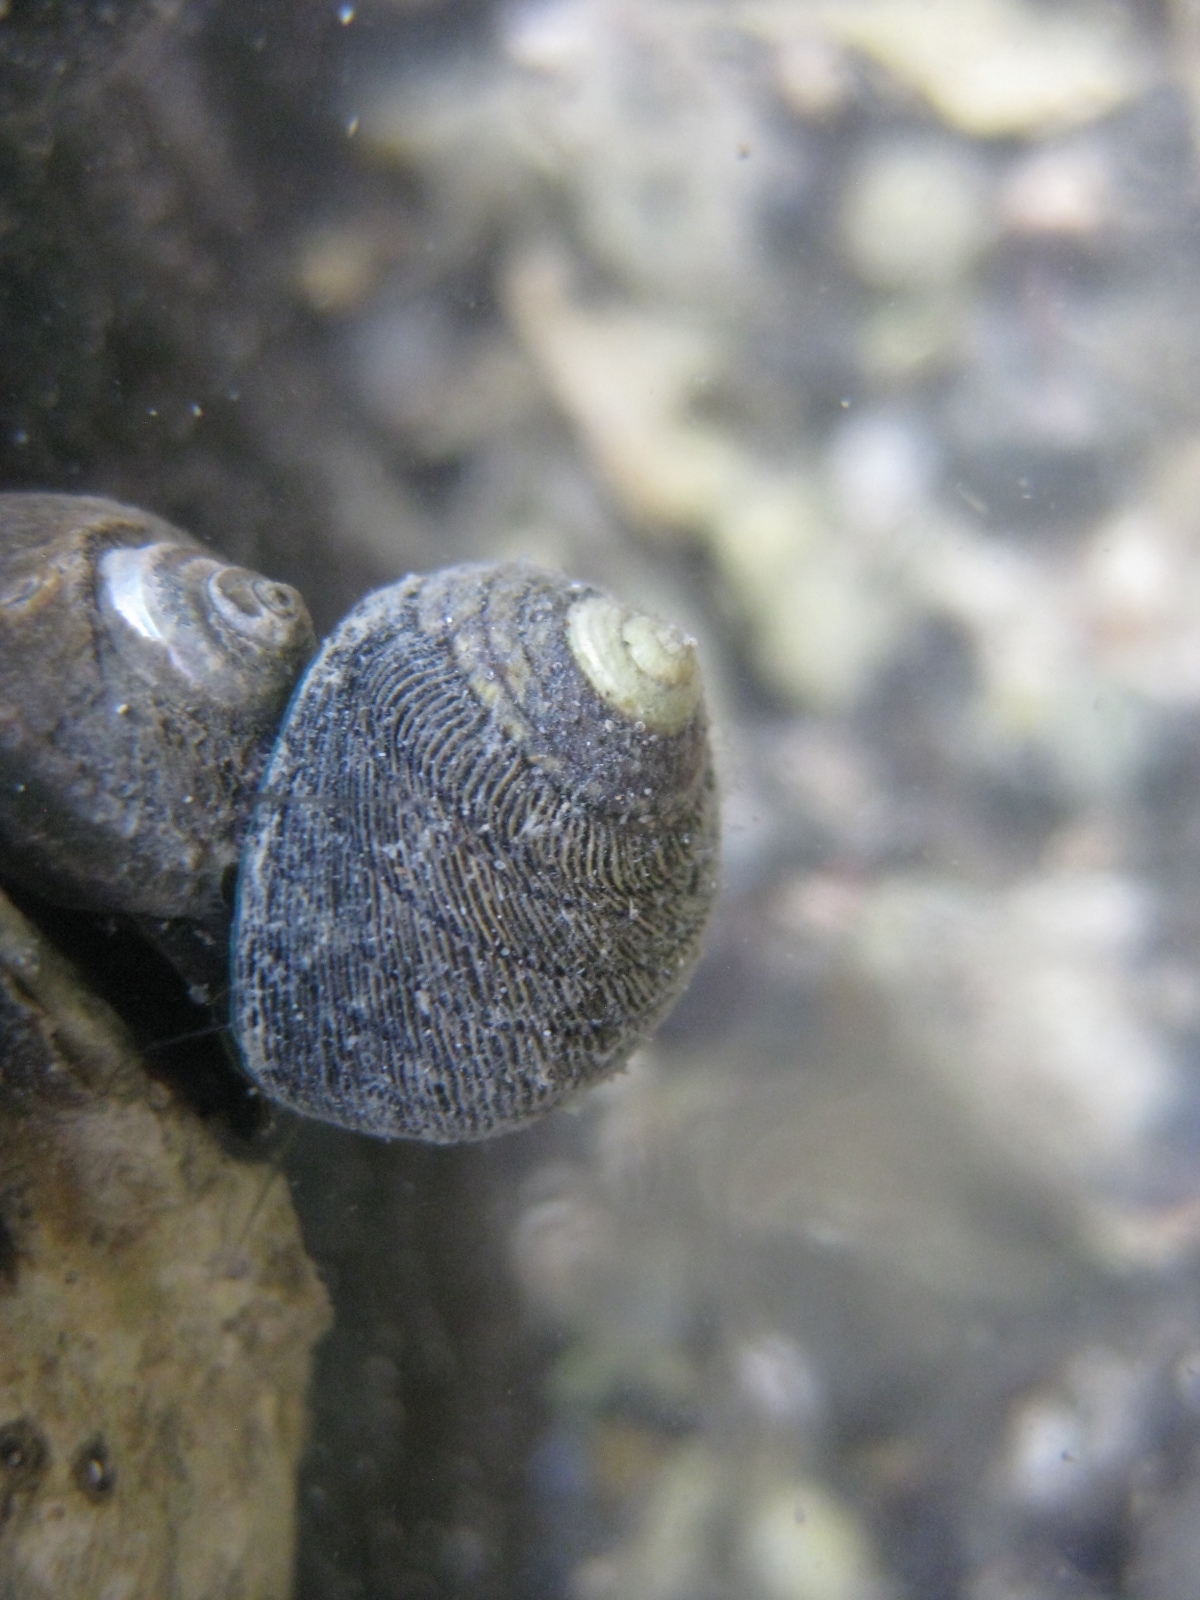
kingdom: Animalia
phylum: Mollusca
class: Gastropoda
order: Trochida
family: Trochidae
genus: Diloma
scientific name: Diloma aethiops
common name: Scorched monodont
